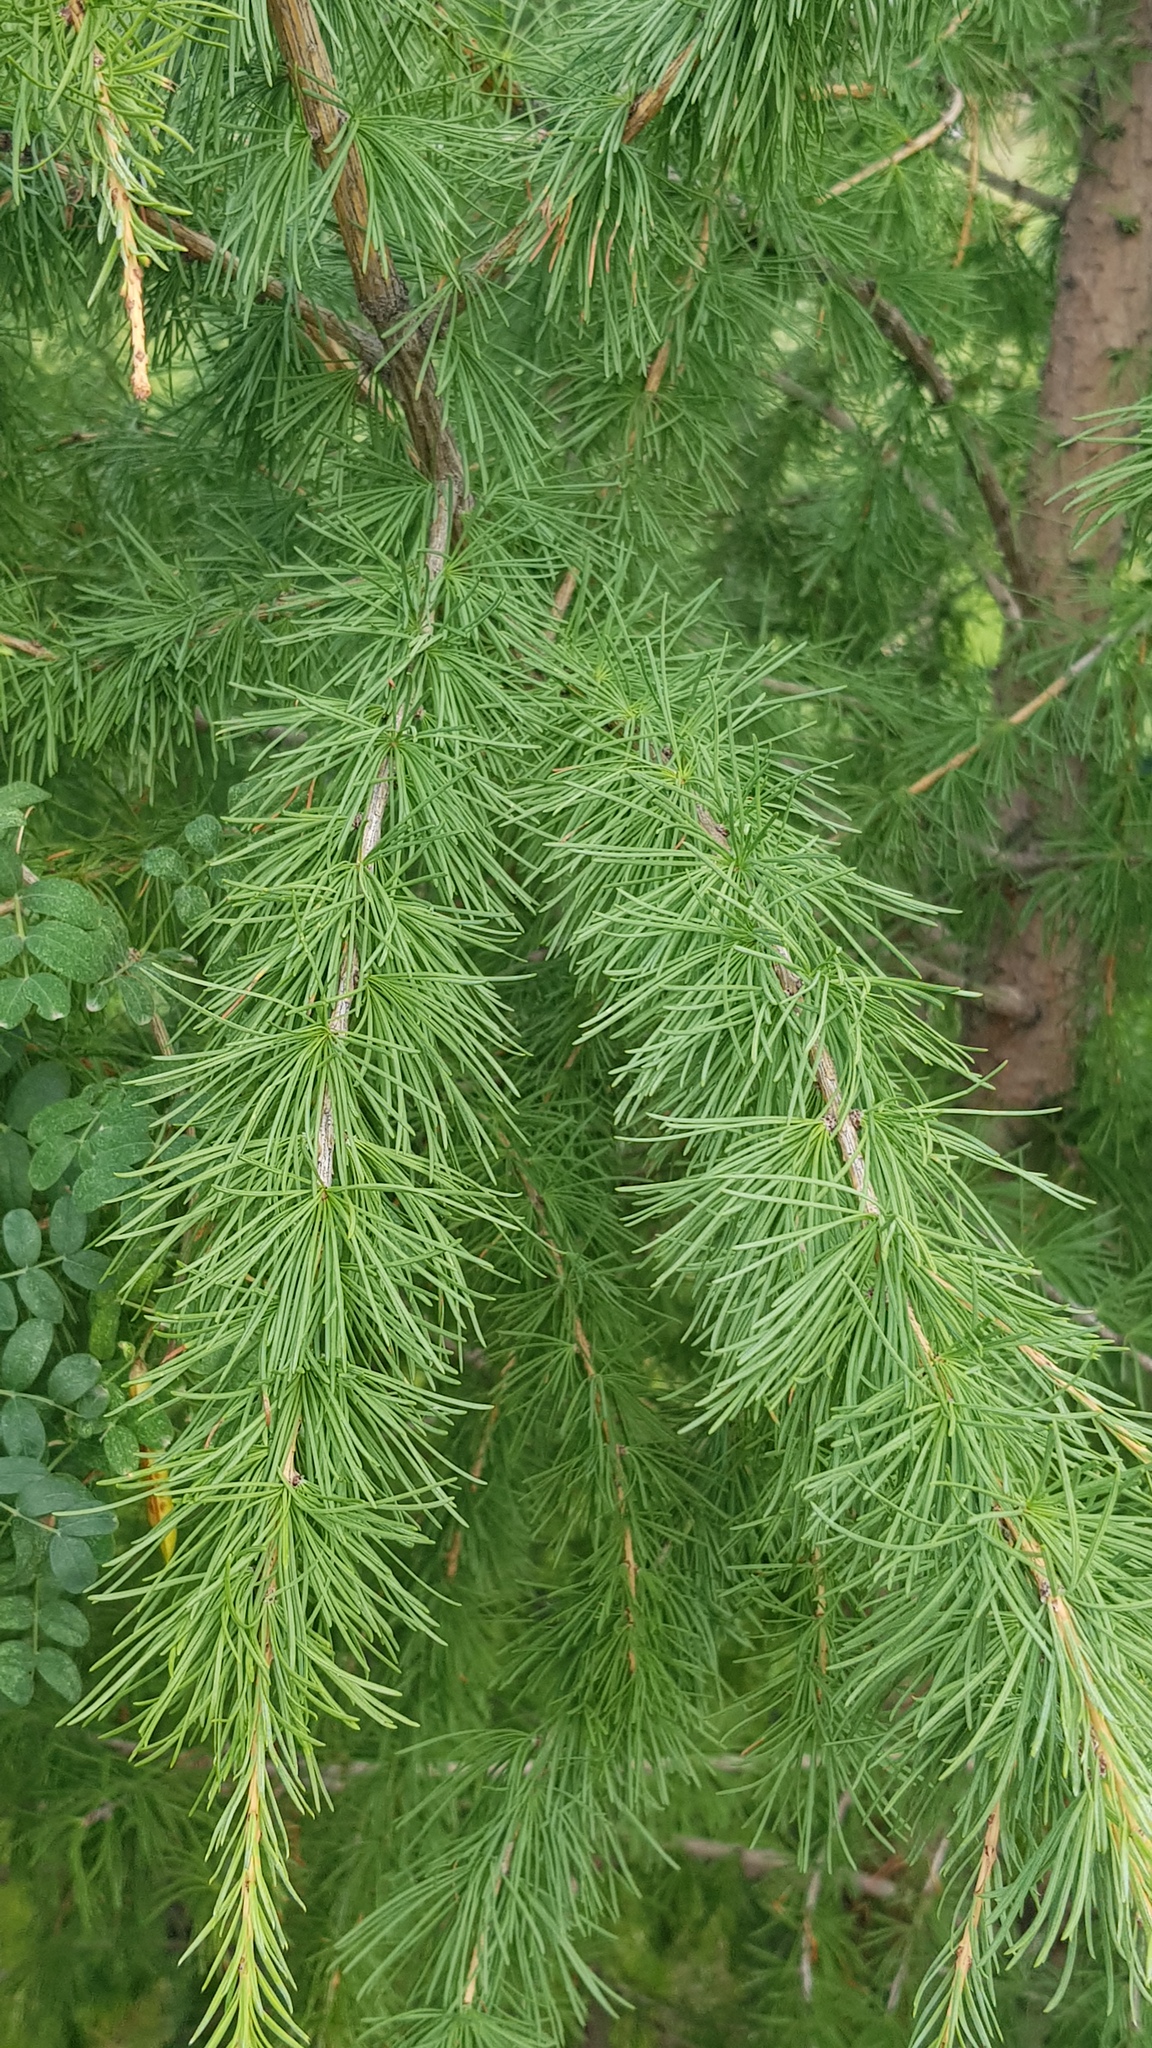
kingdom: Plantae
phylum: Tracheophyta
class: Pinopsida
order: Pinales
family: Pinaceae
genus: Larix
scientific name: Larix sibirica
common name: Siberian larch
